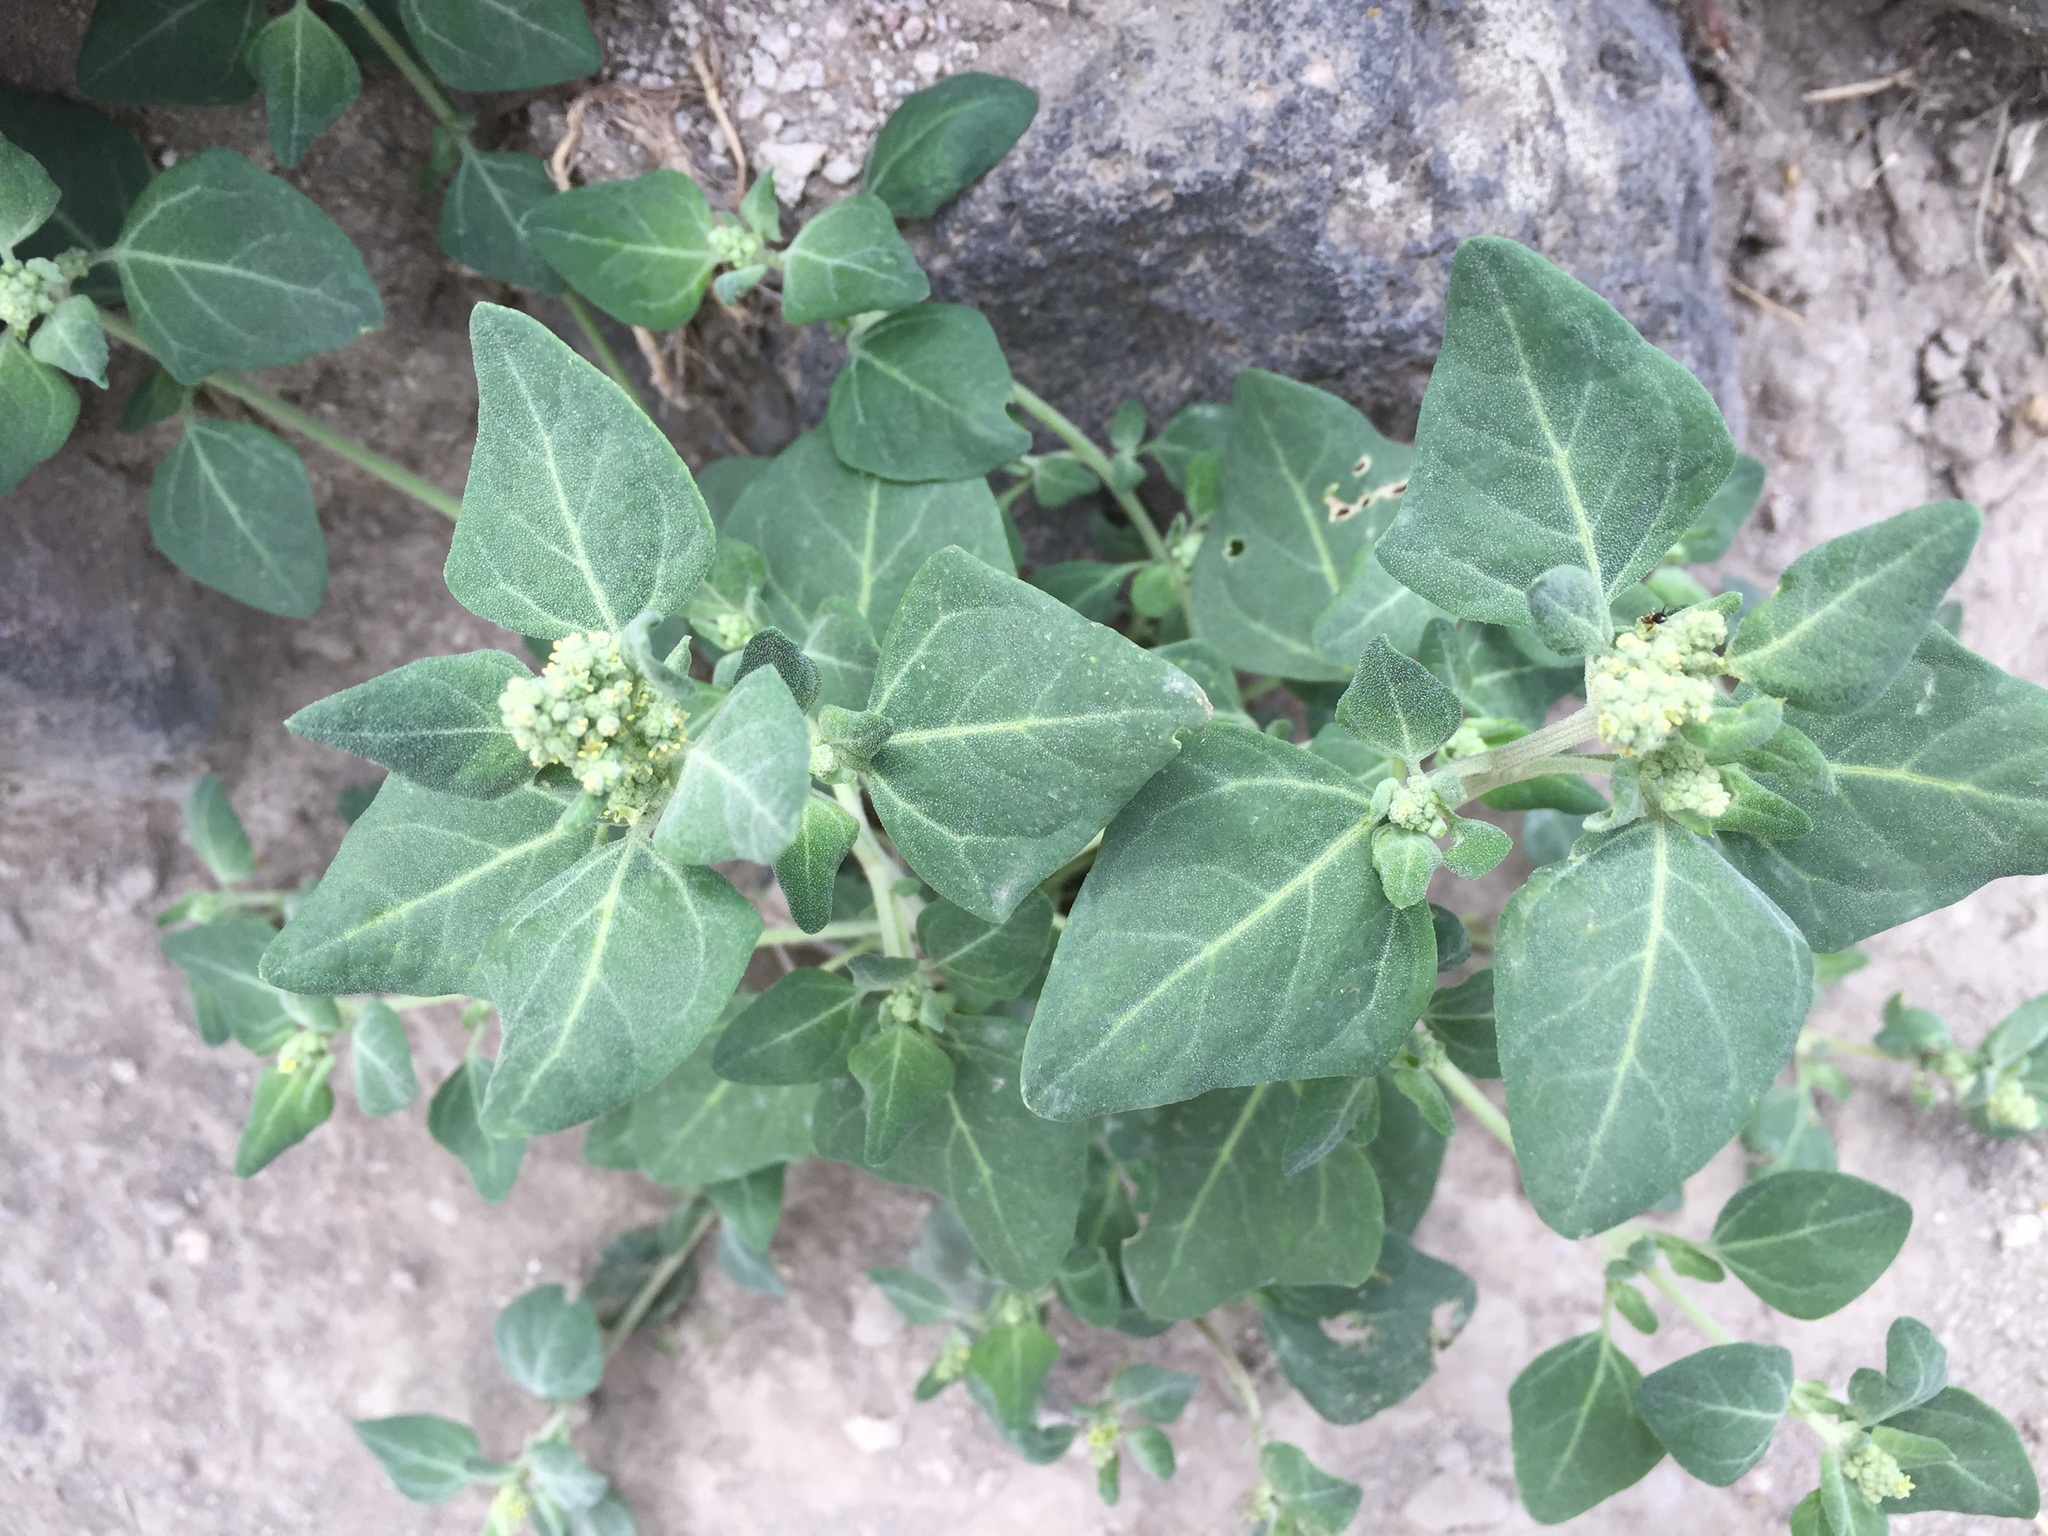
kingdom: Plantae
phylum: Tracheophyta
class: Magnoliopsida
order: Caryophyllales
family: Amaranthaceae
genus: Chenopodium
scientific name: Chenopodium vulvaria
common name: Stinking goosefoot
